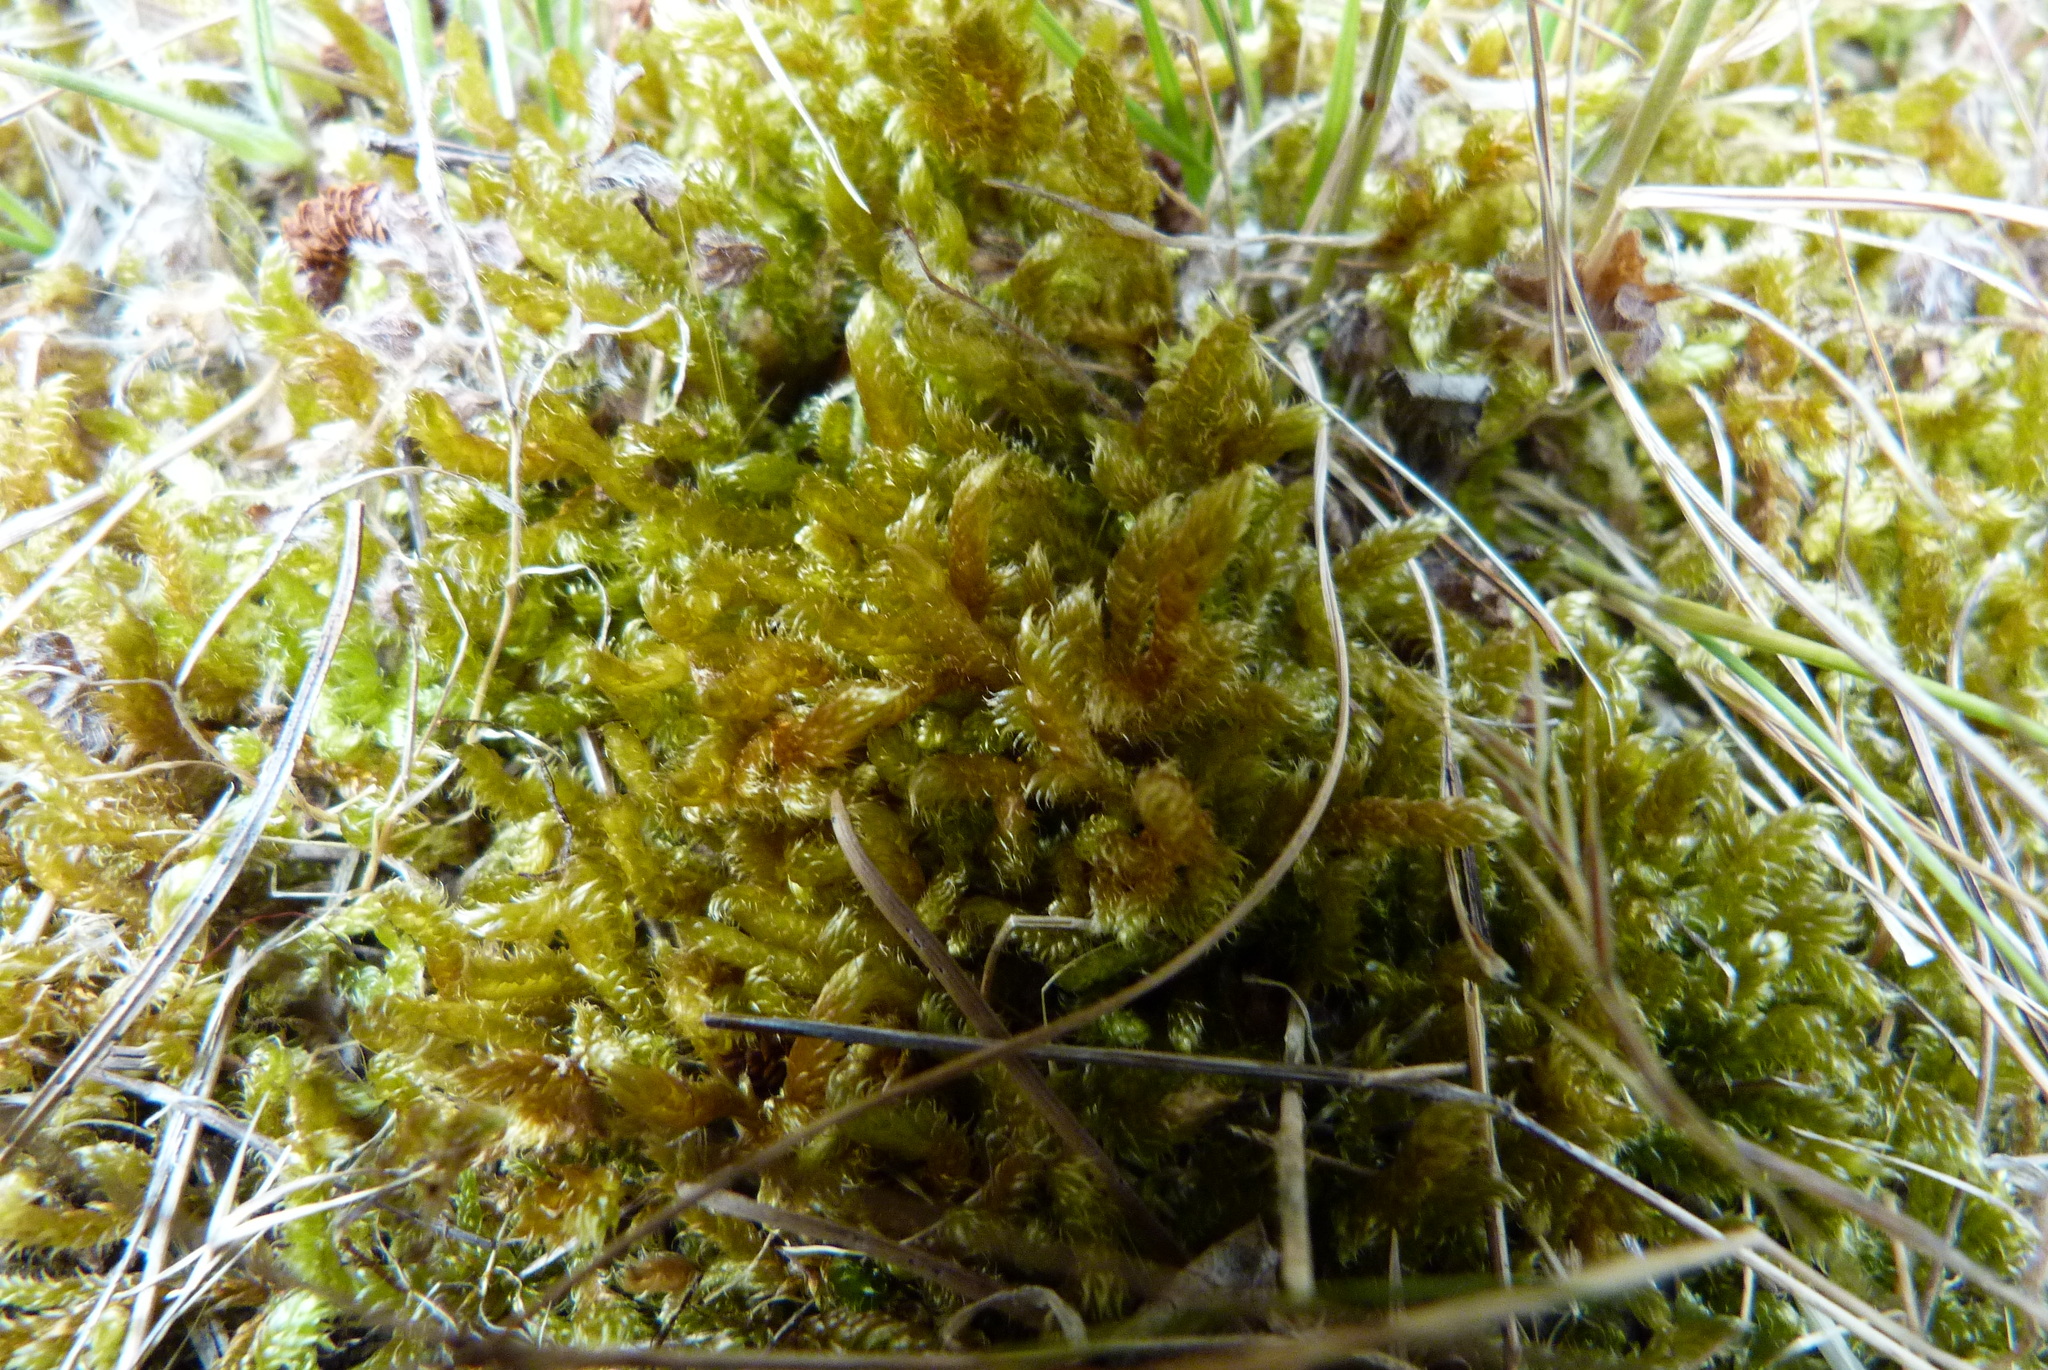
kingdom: Plantae
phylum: Bryophyta
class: Bryopsida
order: Hypnales
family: Hypnaceae
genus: Hypnum
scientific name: Hypnum cupressiforme
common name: Cypress-leaved plait-moss
